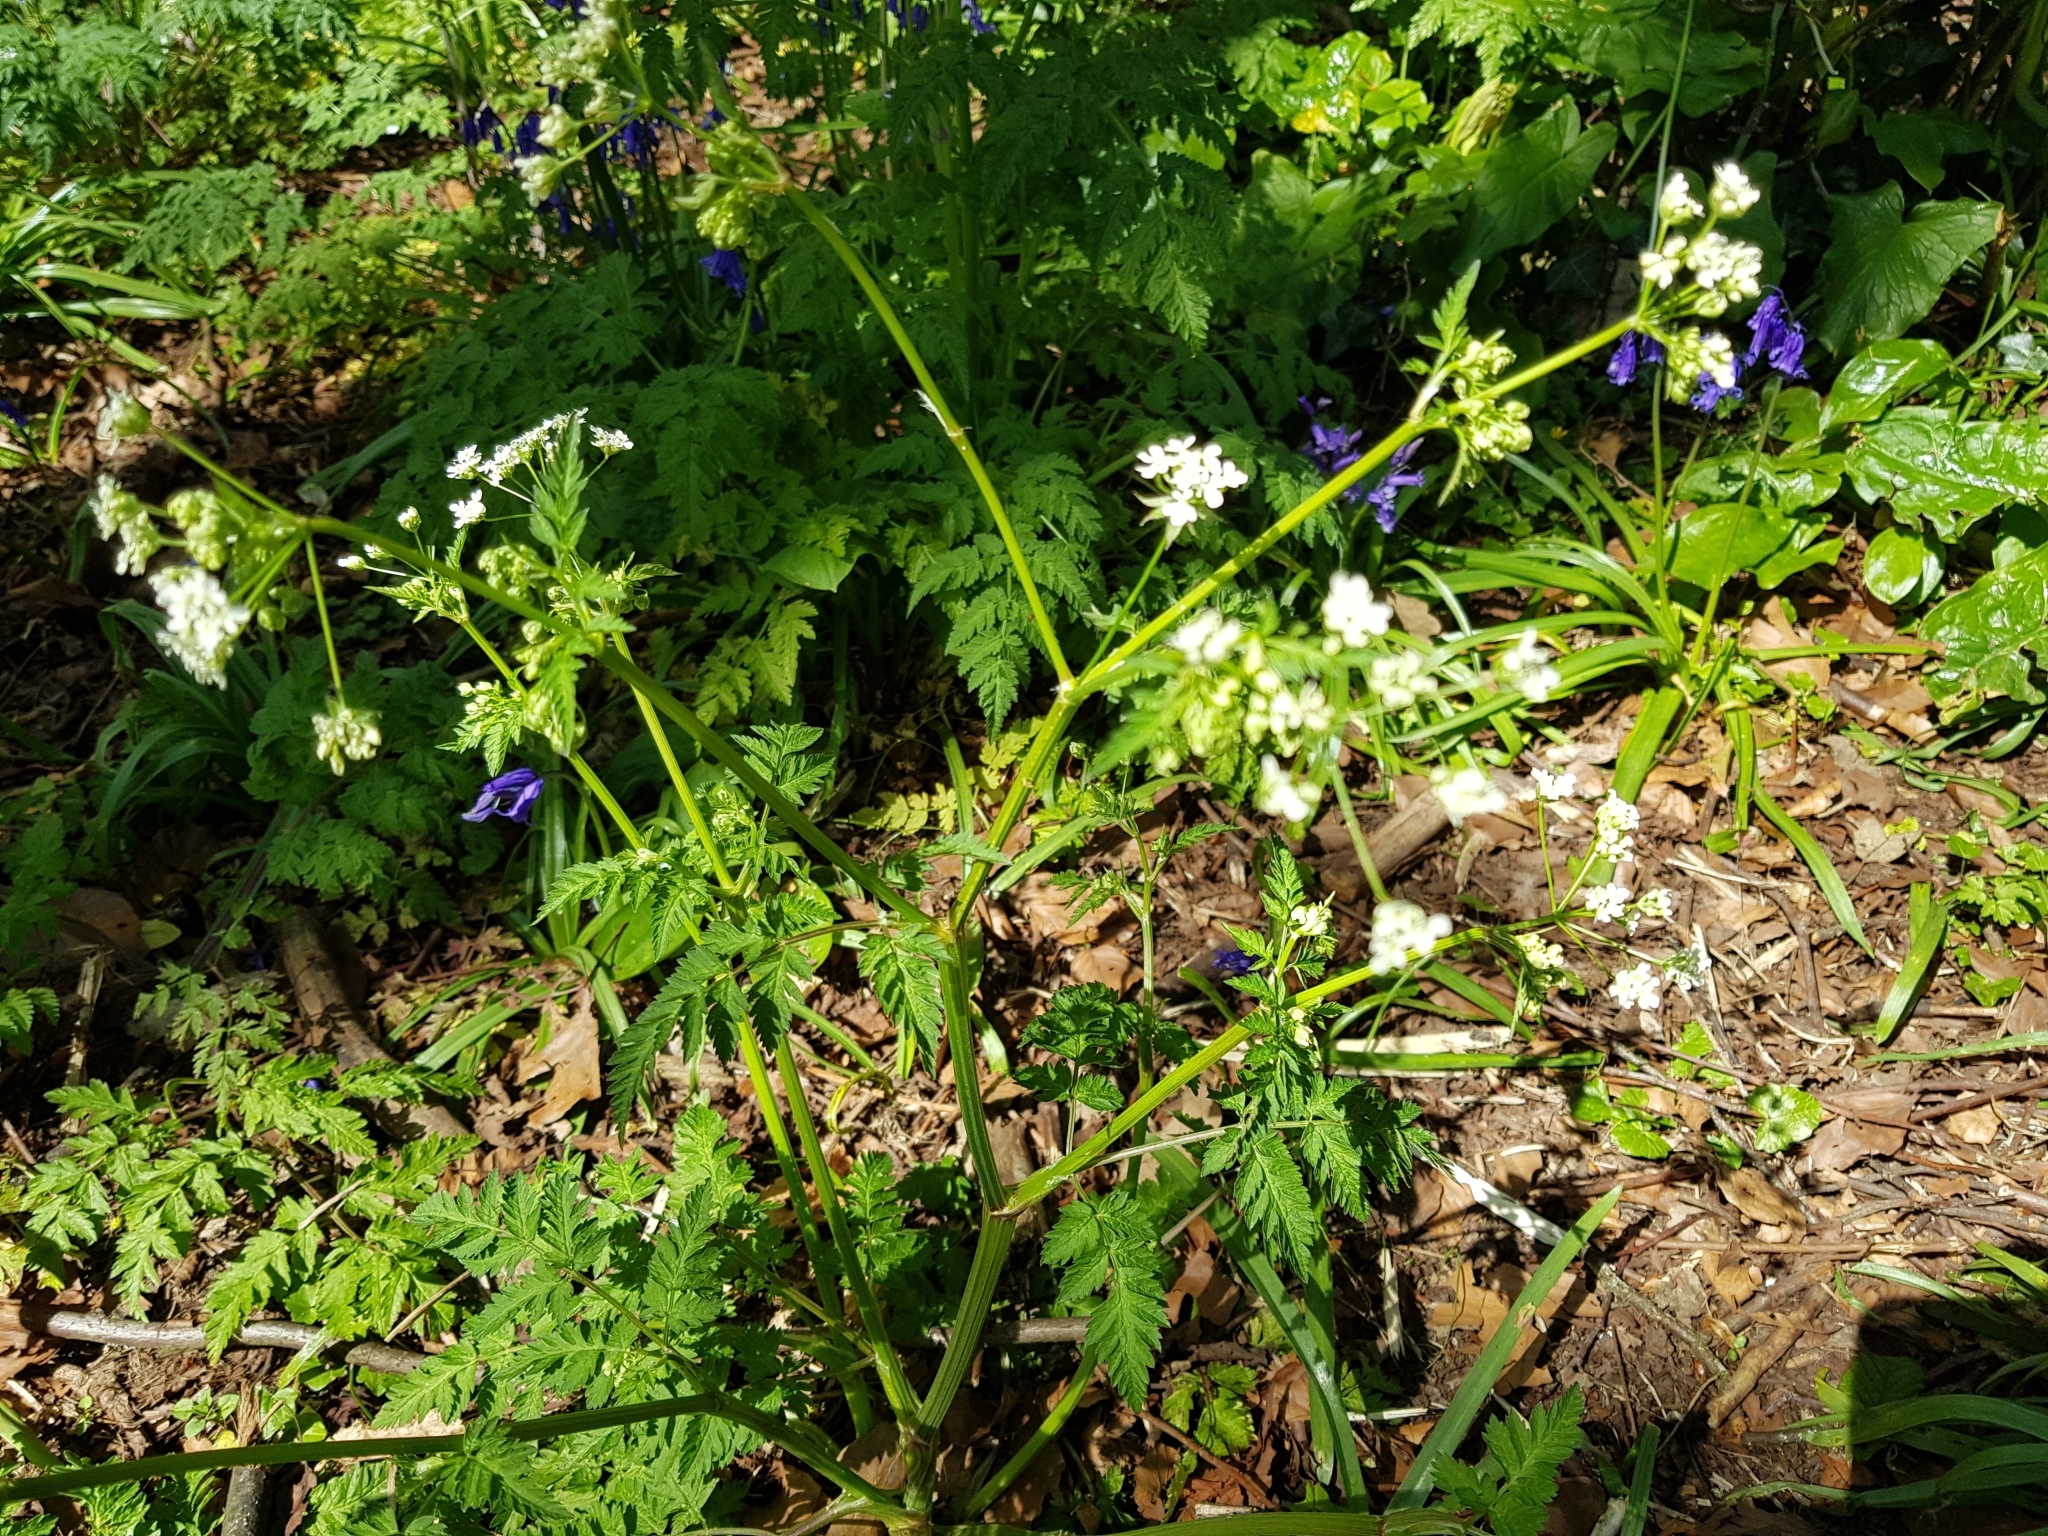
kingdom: Plantae
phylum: Tracheophyta
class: Magnoliopsida
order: Apiales
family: Apiaceae
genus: Anthriscus
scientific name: Anthriscus sylvestris
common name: Cow parsley
